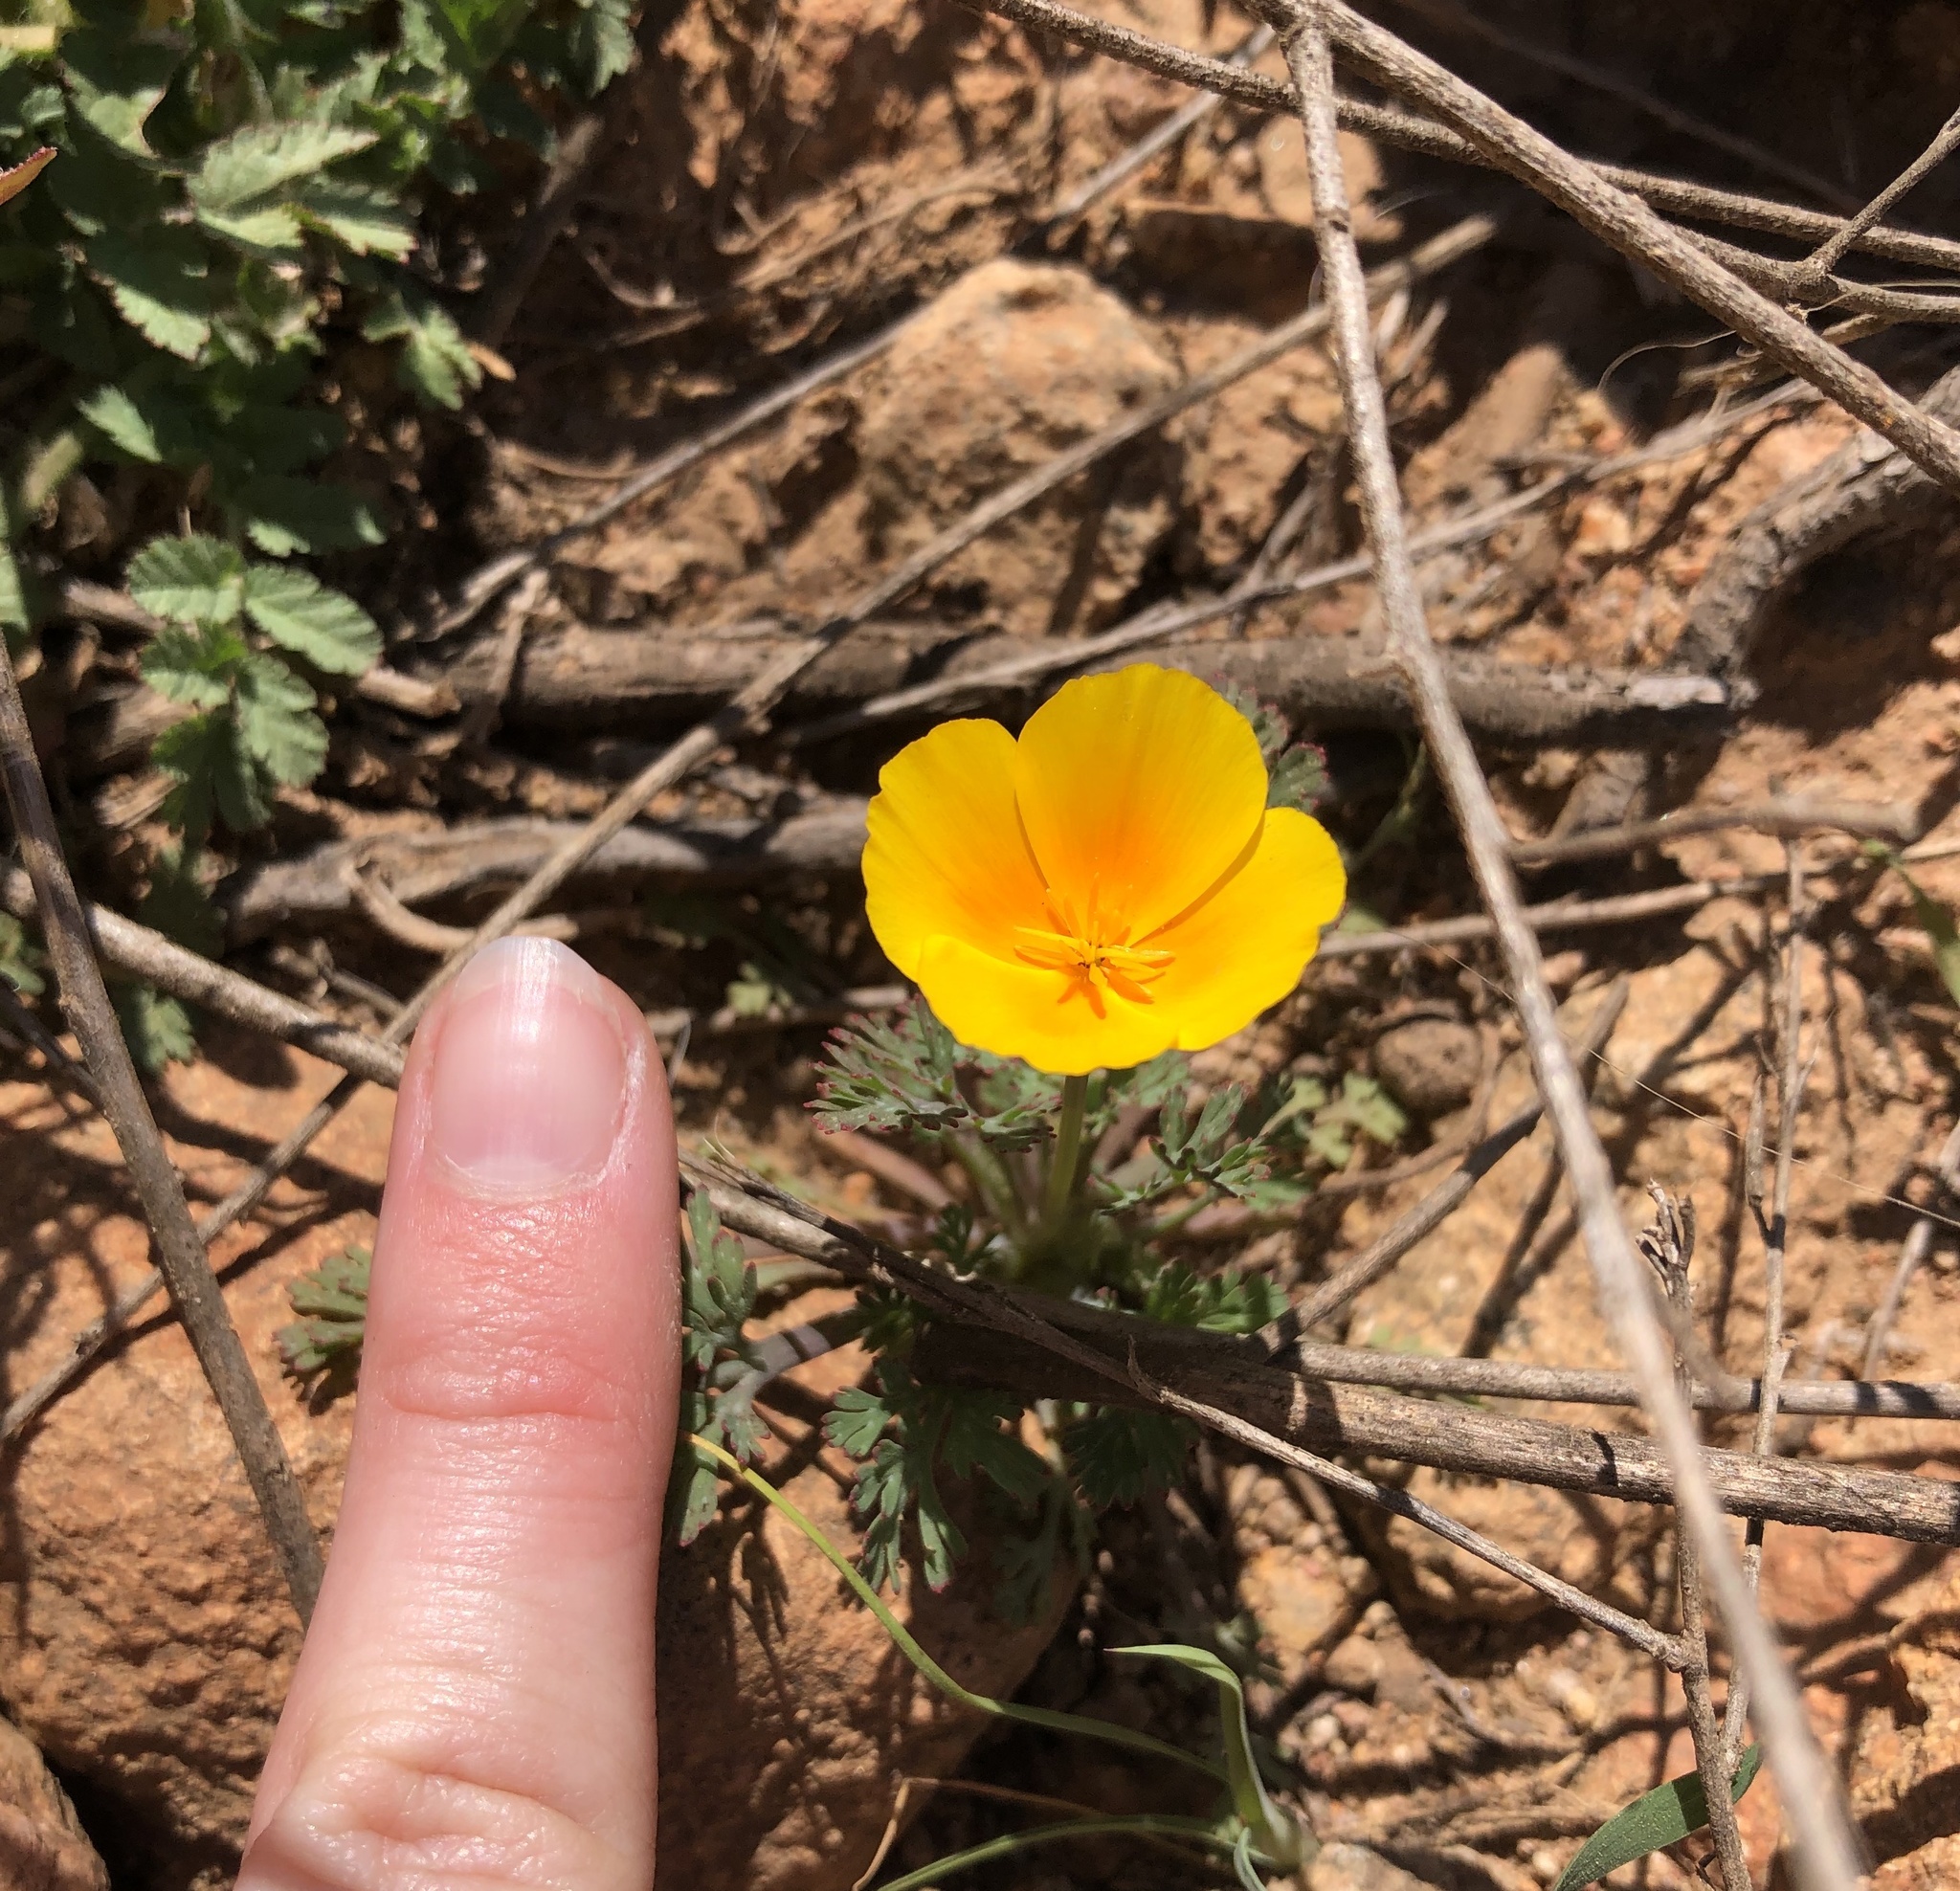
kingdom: Plantae
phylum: Tracheophyta
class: Magnoliopsida
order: Ranunculales
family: Papaveraceae
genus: Eschscholzia
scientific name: Eschscholzia californica
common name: California poppy
